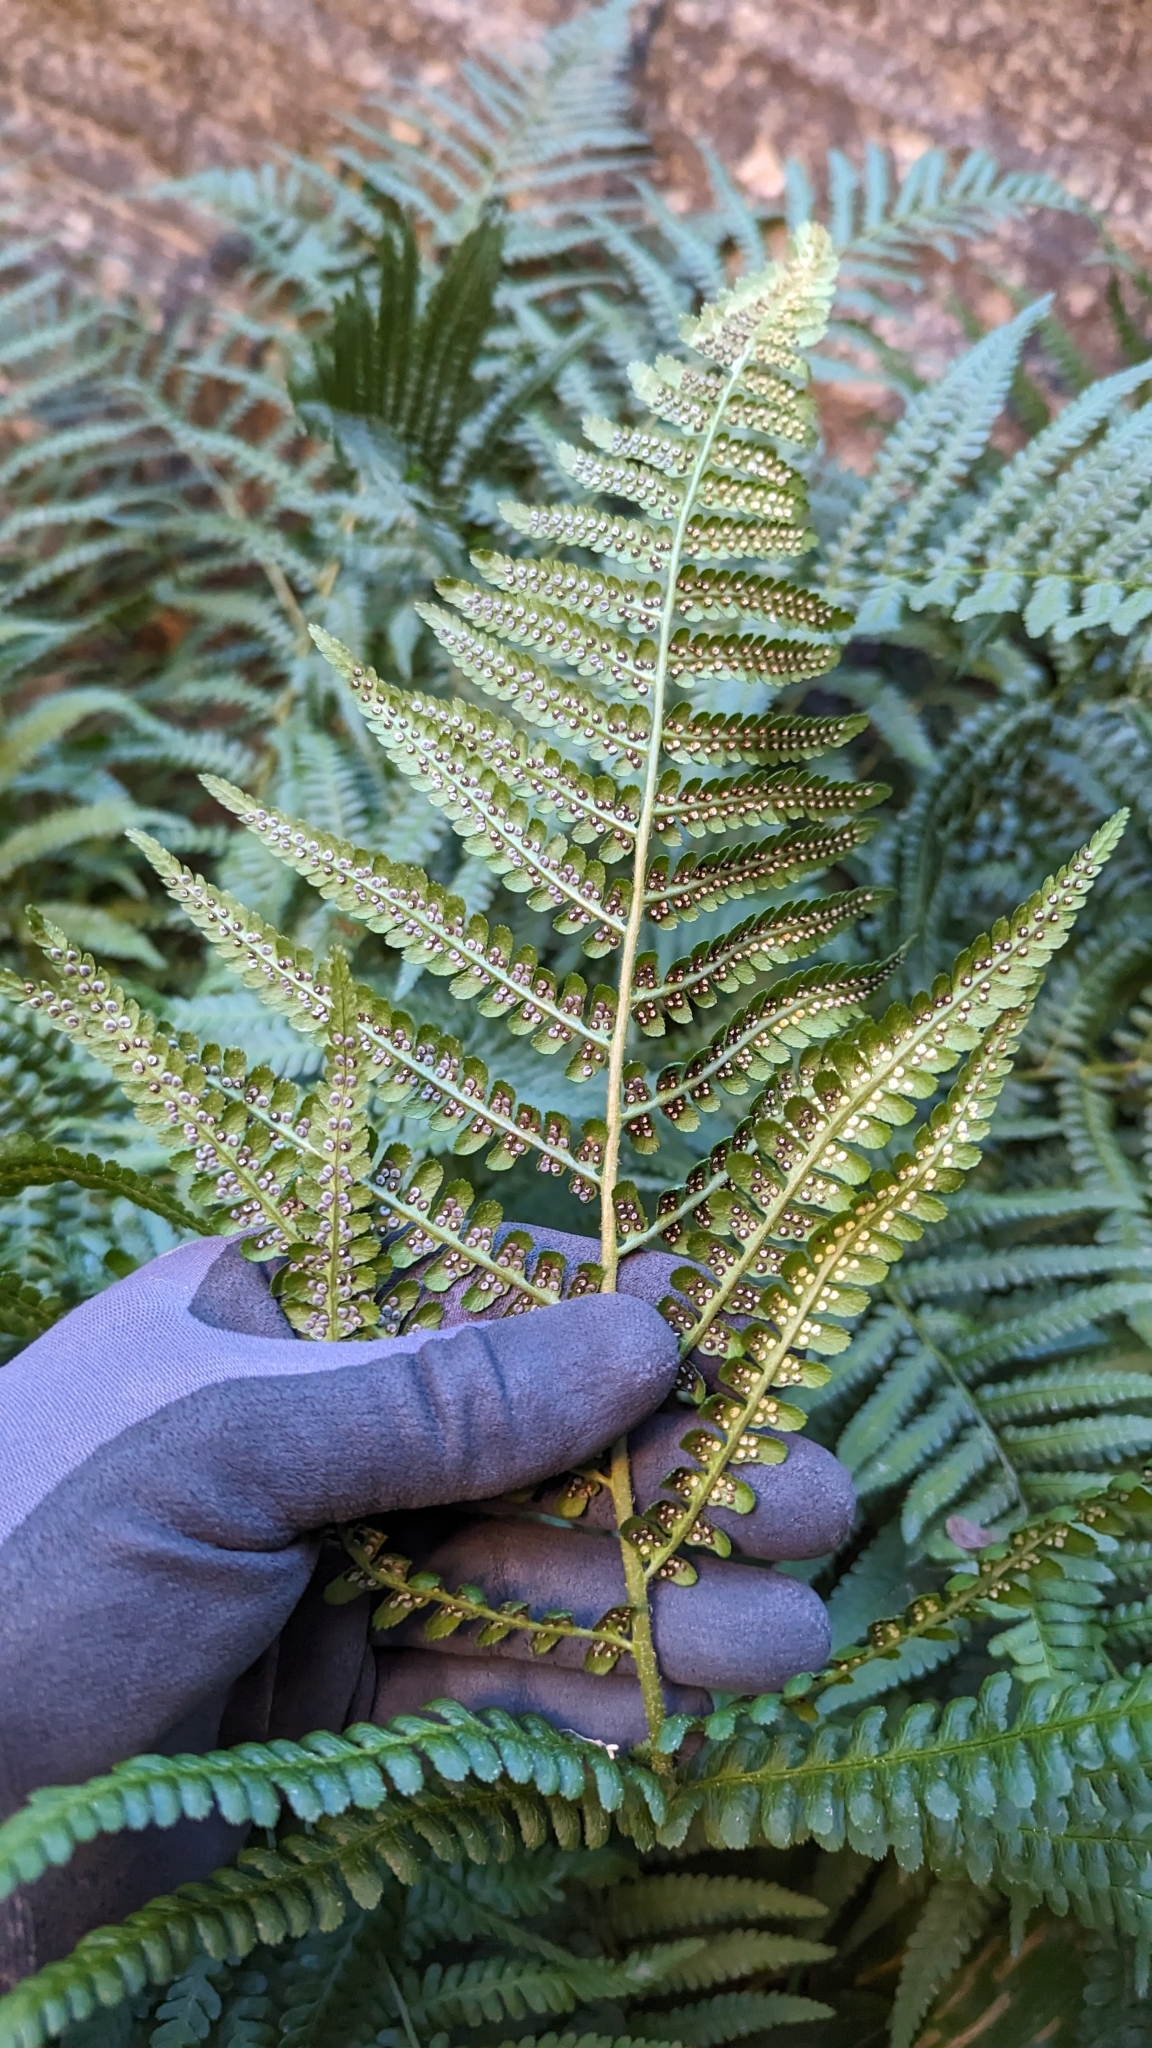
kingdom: Plantae
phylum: Tracheophyta
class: Polypodiopsida
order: Polypodiales
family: Dryopteridaceae
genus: Dryopteris
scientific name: Dryopteris filix-mas
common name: Male fern
